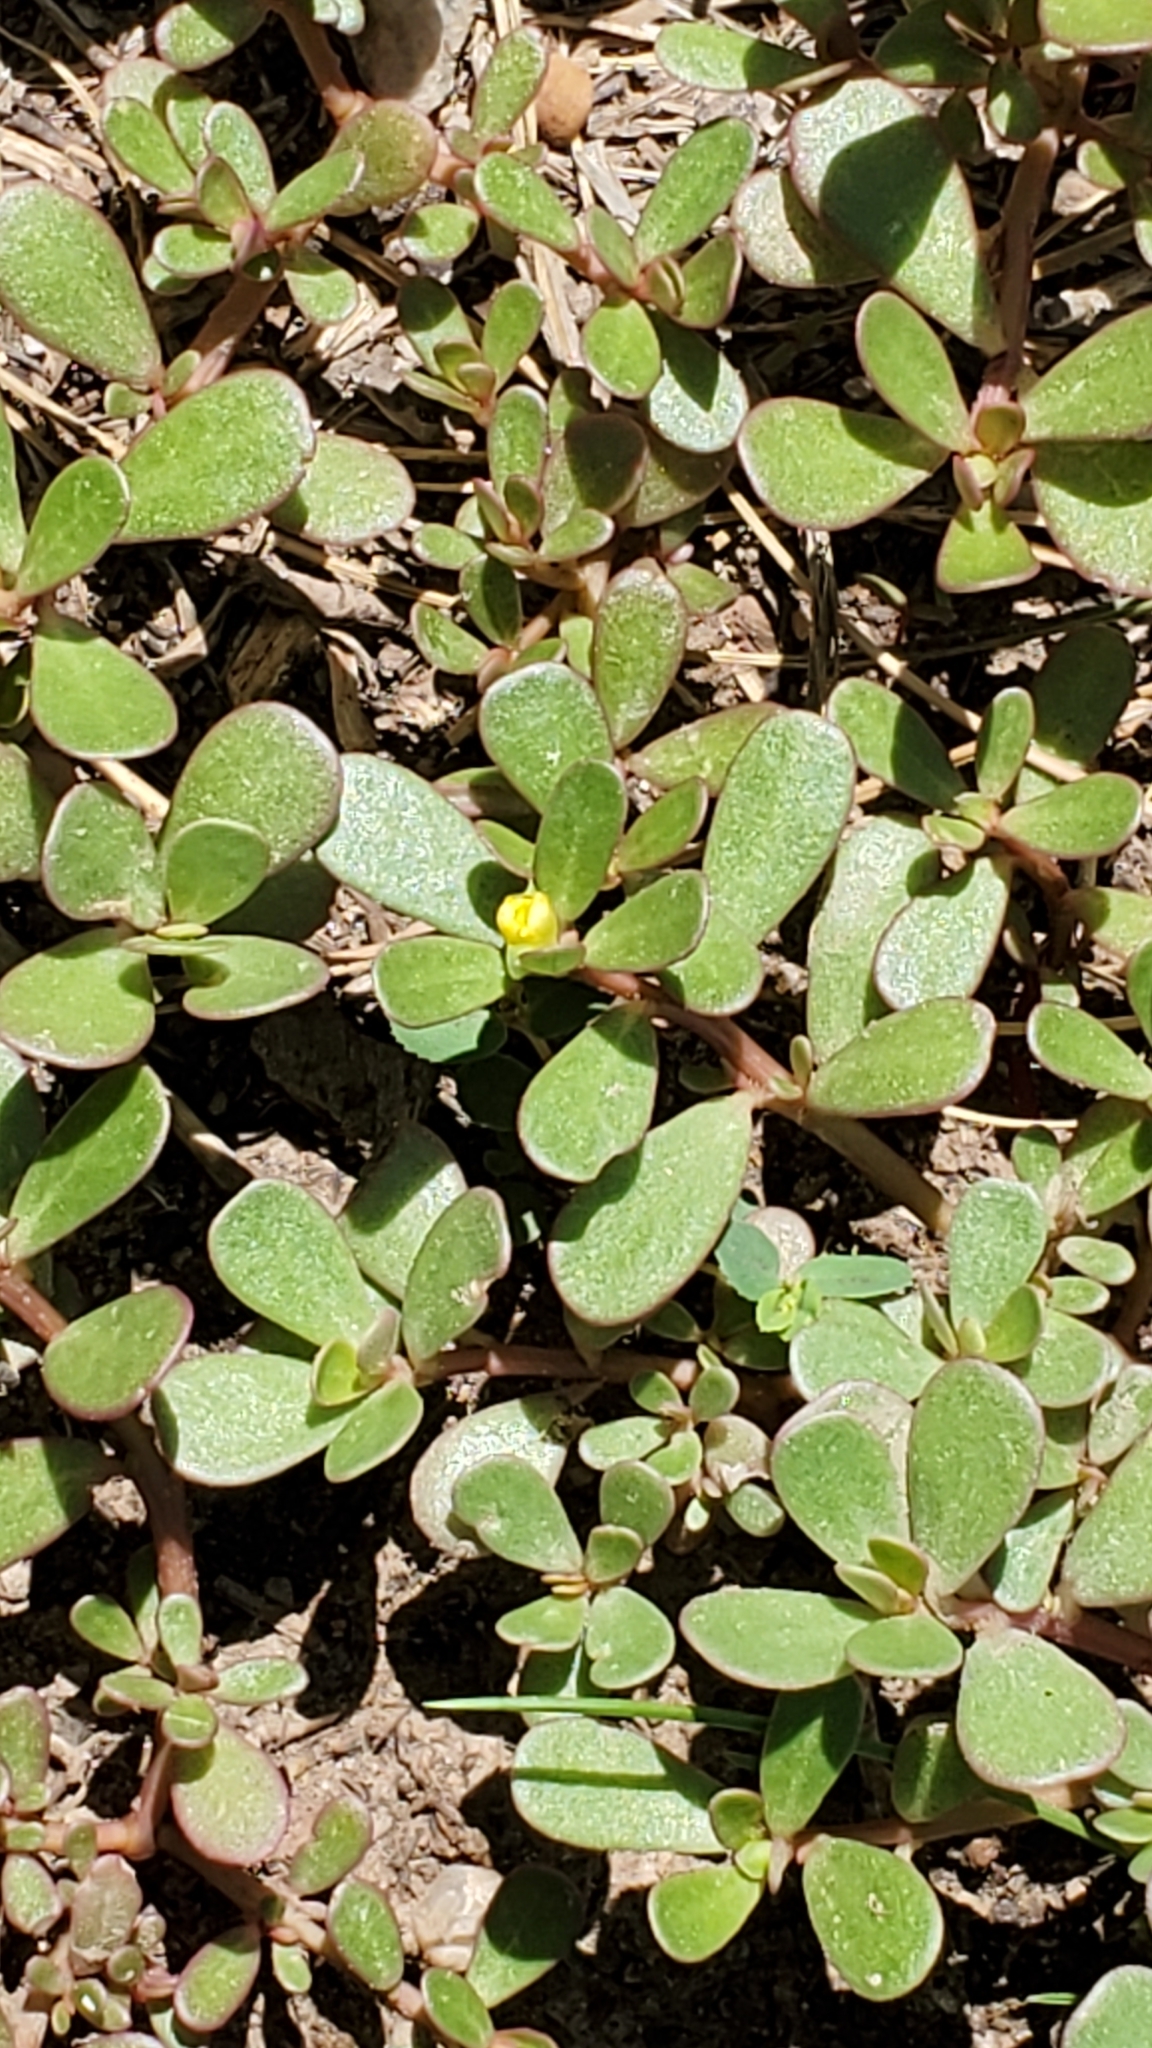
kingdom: Plantae
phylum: Tracheophyta
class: Magnoliopsida
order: Caryophyllales
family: Portulacaceae
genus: Portulaca
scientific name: Portulaca oleracea
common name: Common purslane
